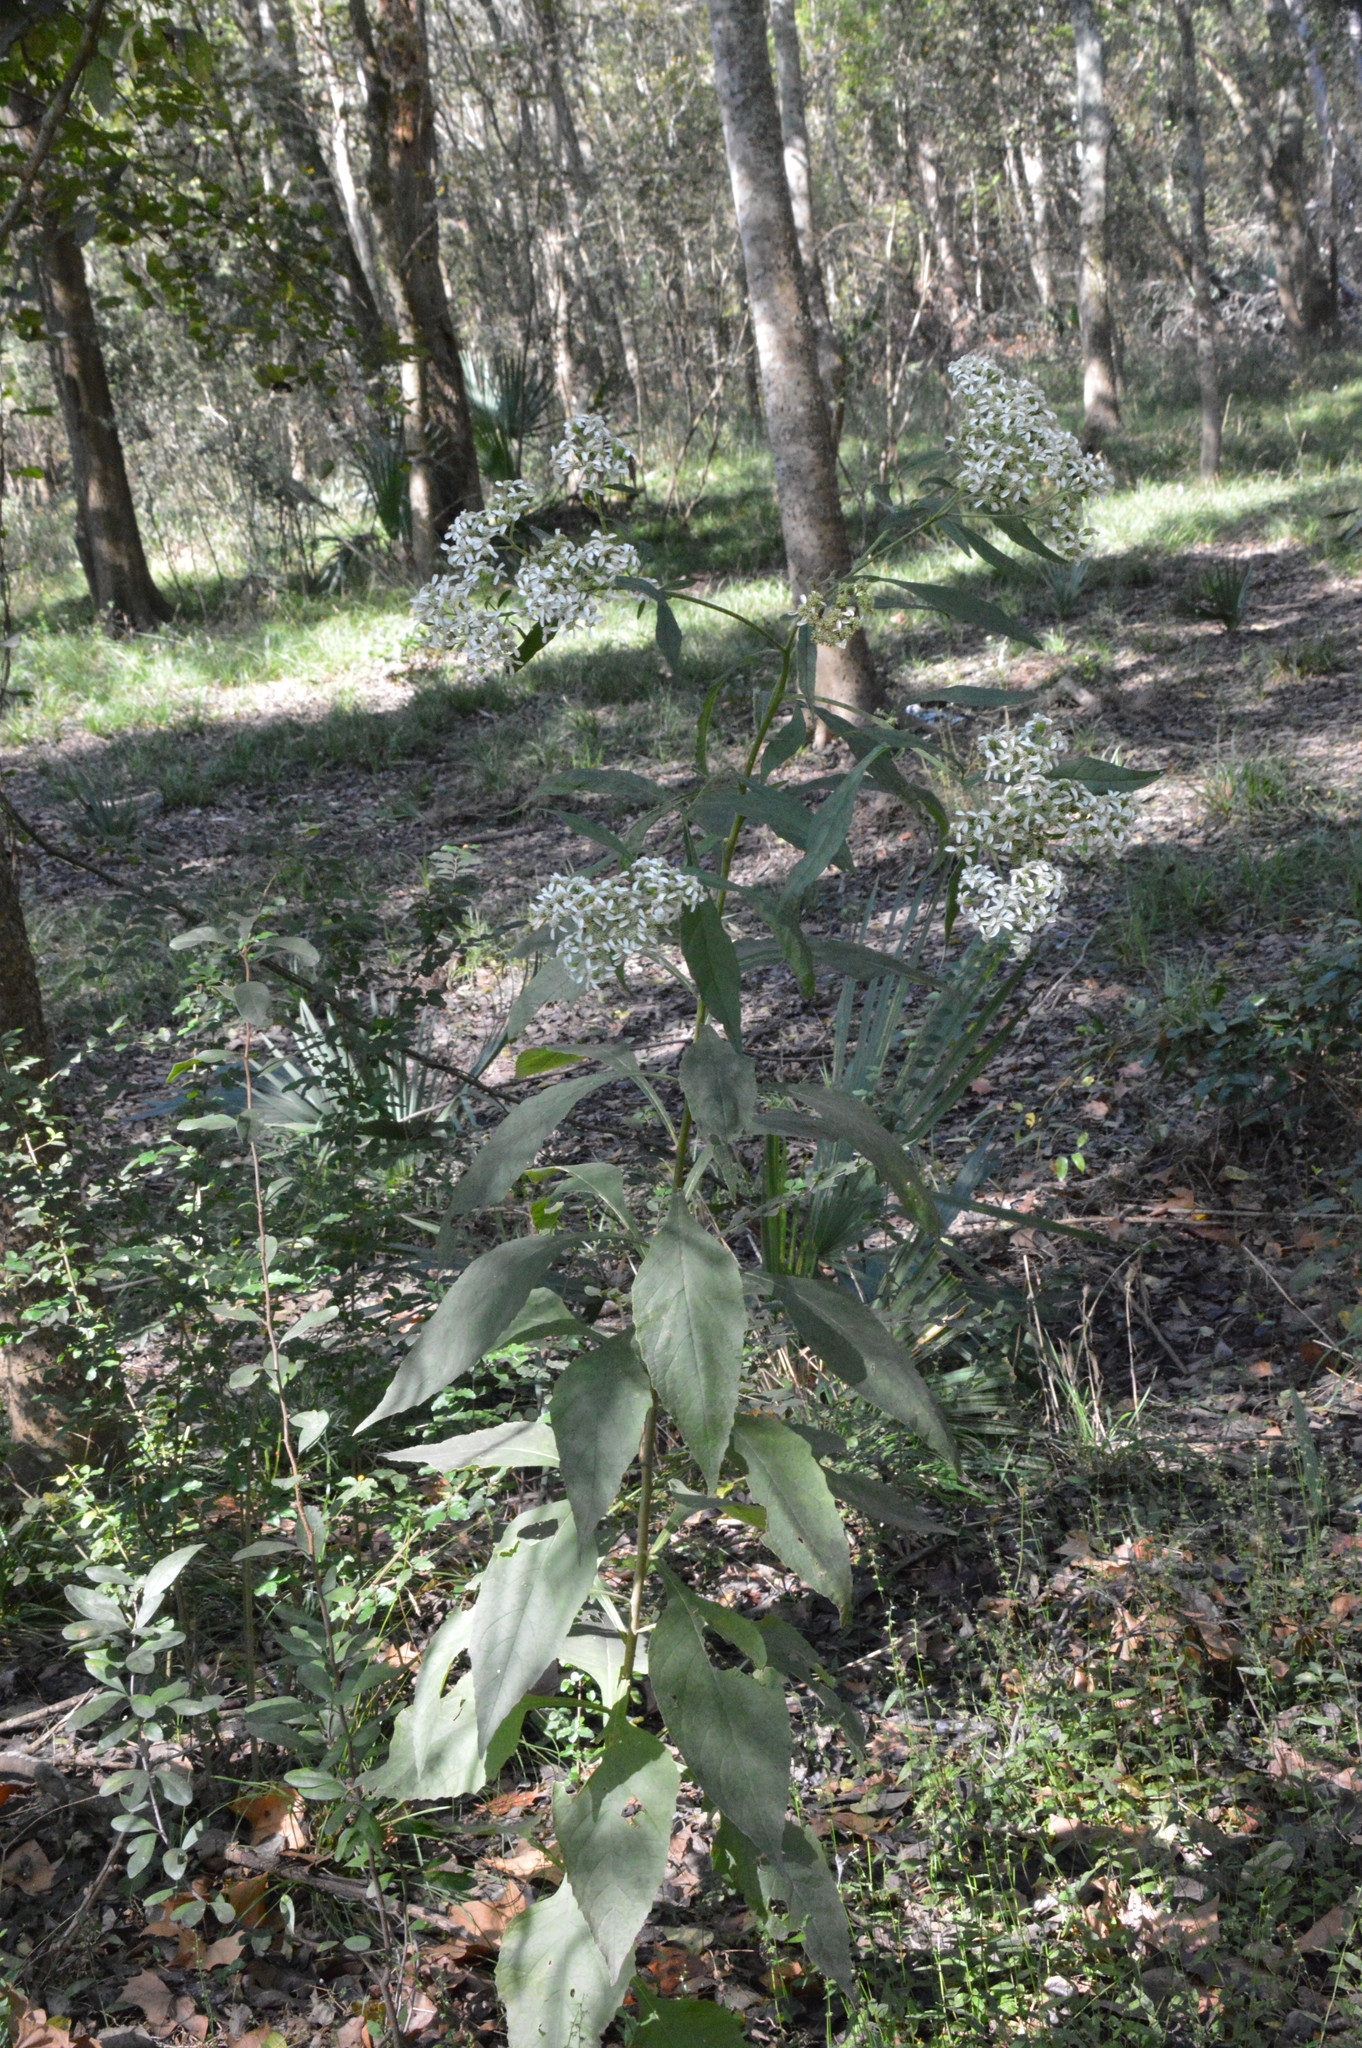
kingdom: Plantae
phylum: Tracheophyta
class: Magnoliopsida
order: Asterales
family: Asteraceae
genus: Verbesina
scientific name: Verbesina virginica
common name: Frostweed
